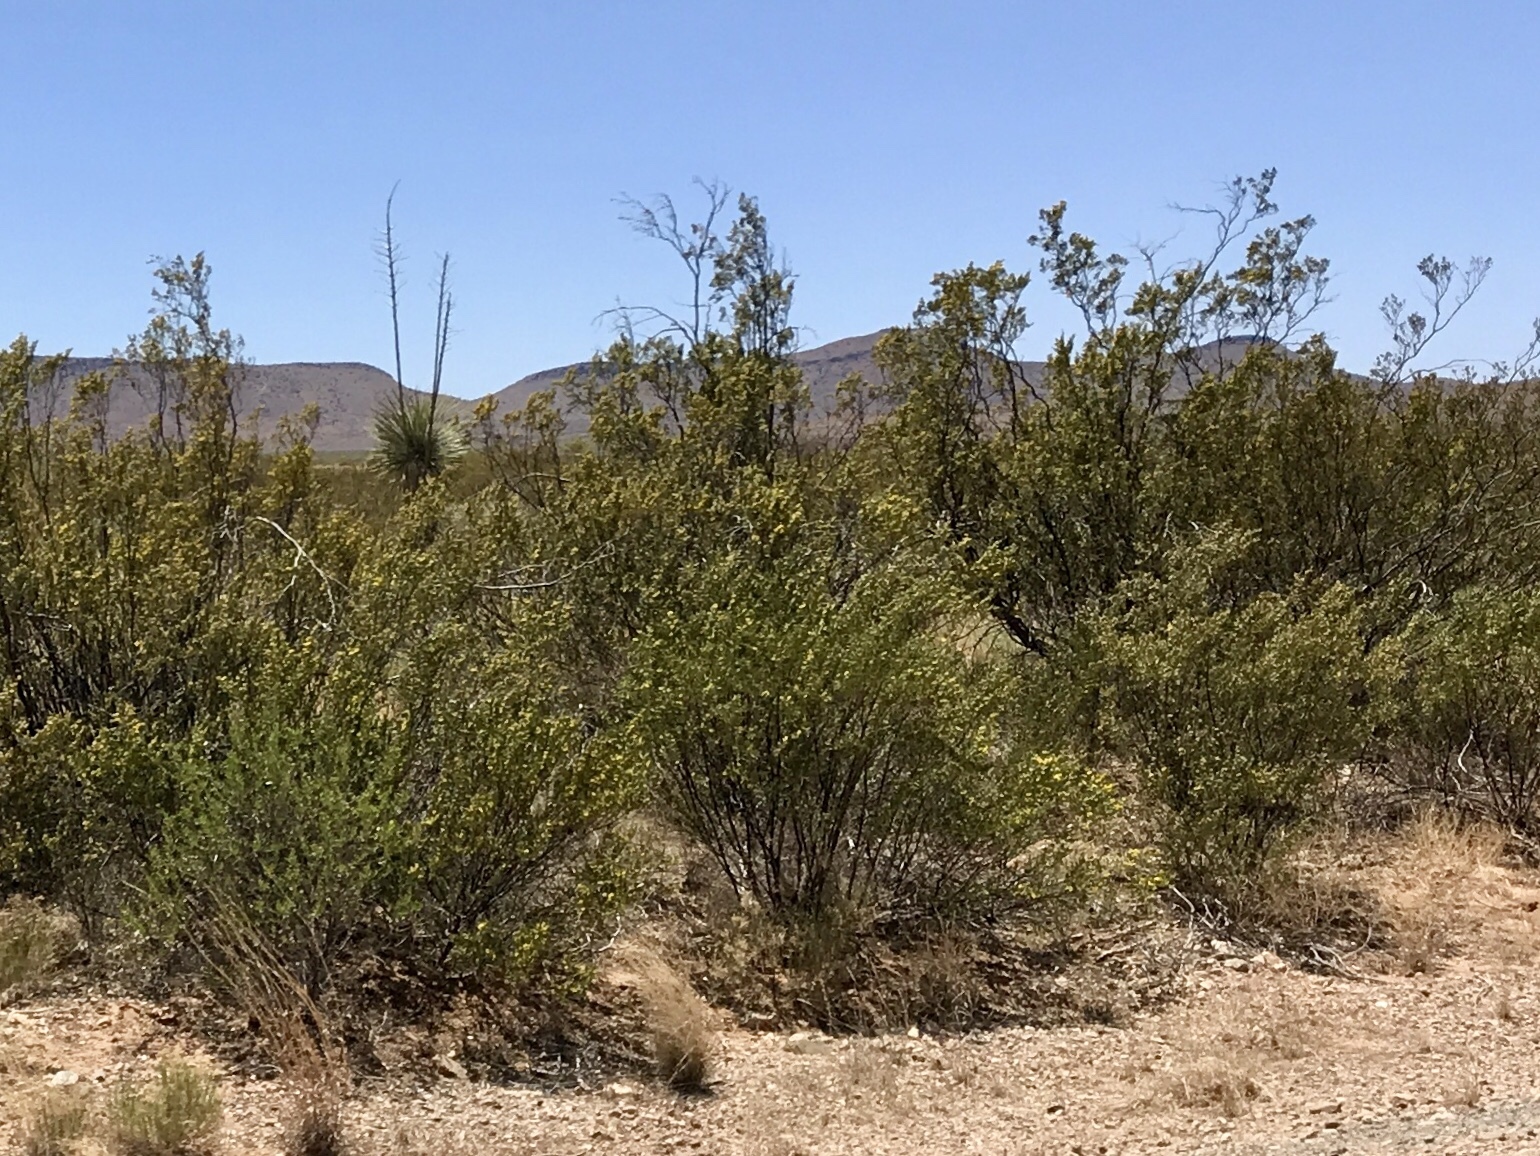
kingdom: Plantae
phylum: Tracheophyta
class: Magnoliopsida
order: Zygophyllales
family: Zygophyllaceae
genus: Larrea
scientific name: Larrea tridentata
